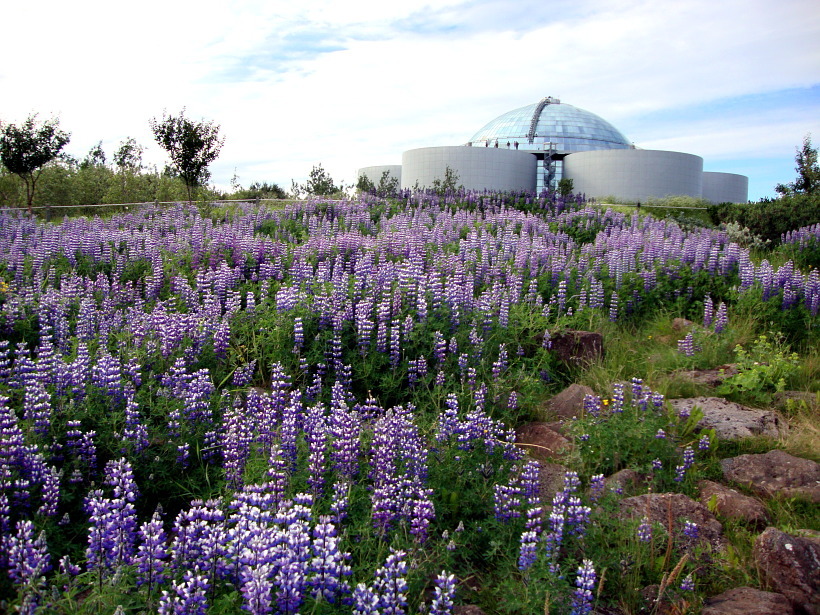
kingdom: Plantae
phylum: Tracheophyta
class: Magnoliopsida
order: Fabales
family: Fabaceae
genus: Lupinus
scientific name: Lupinus nootkatensis
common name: Nootka lupine
